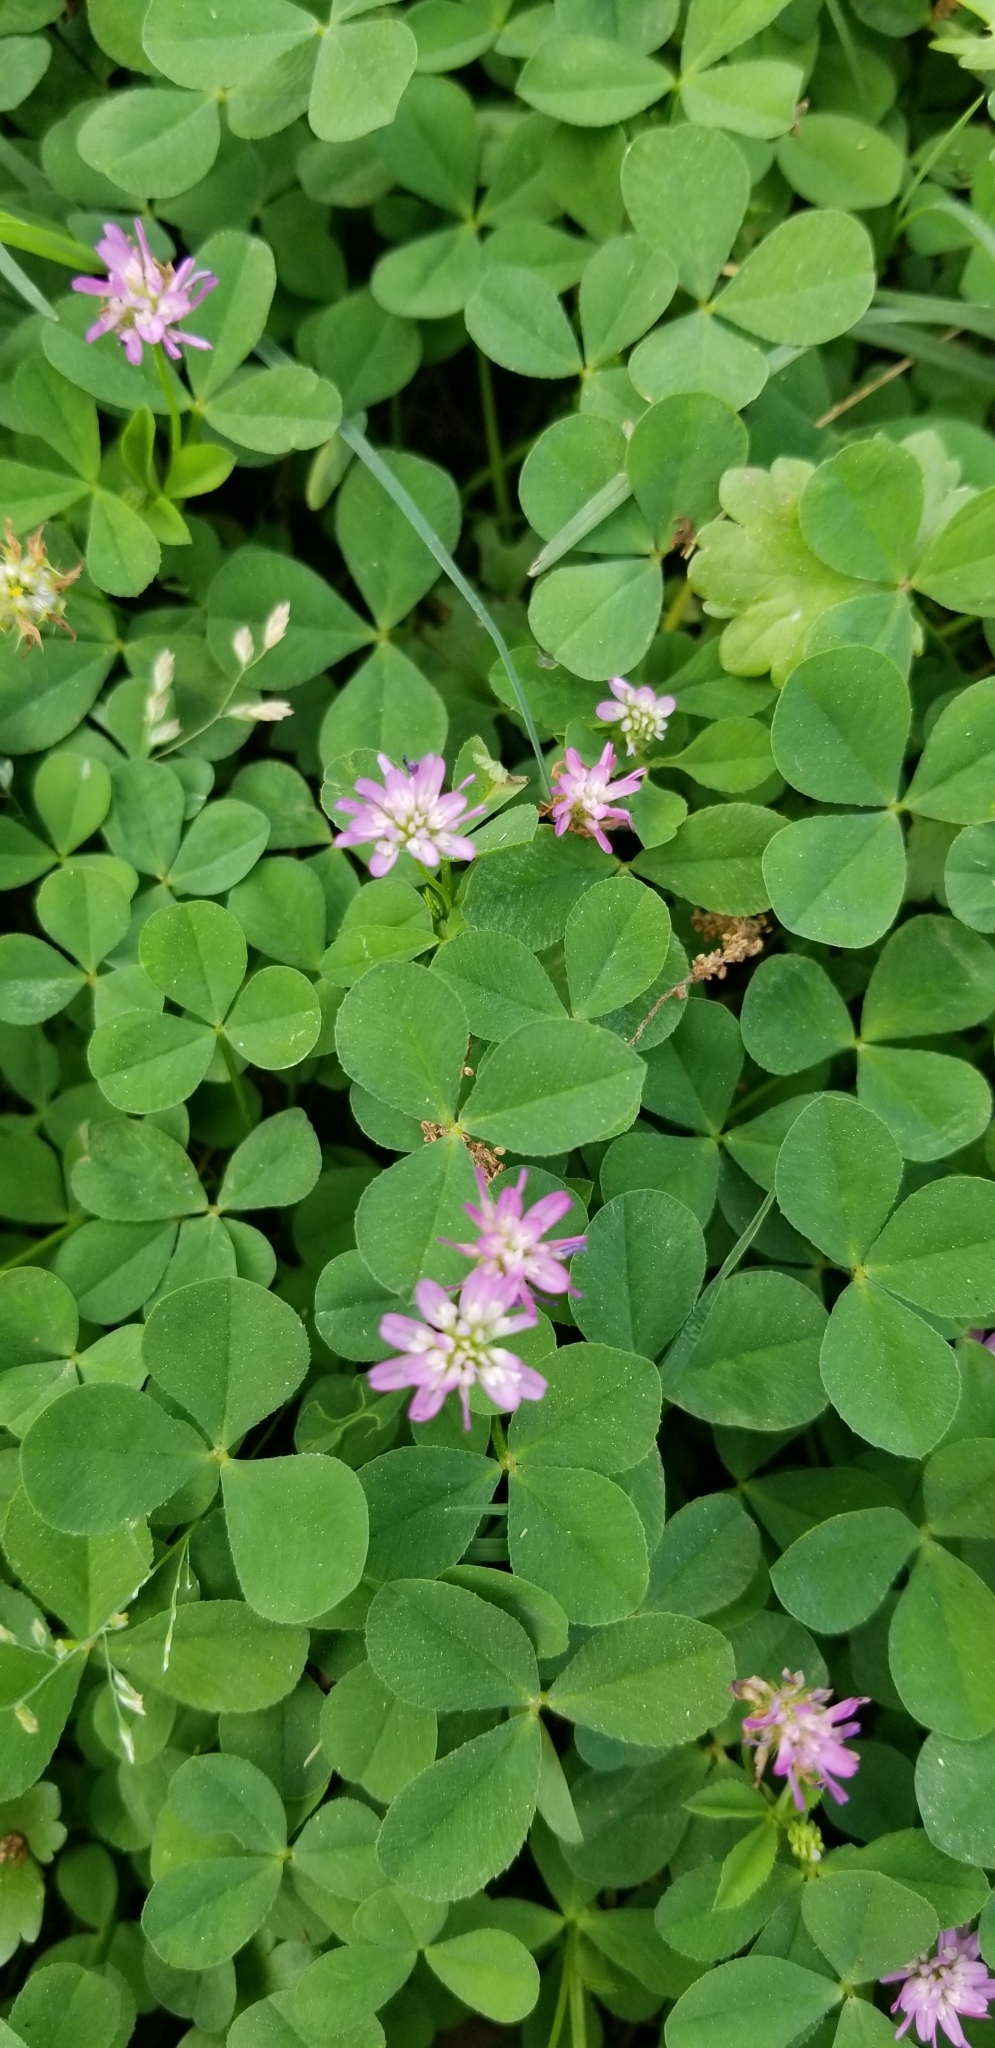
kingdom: Plantae
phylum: Tracheophyta
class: Magnoliopsida
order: Fabales
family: Fabaceae
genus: Trifolium
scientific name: Trifolium resupinatum
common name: Reversed clover
